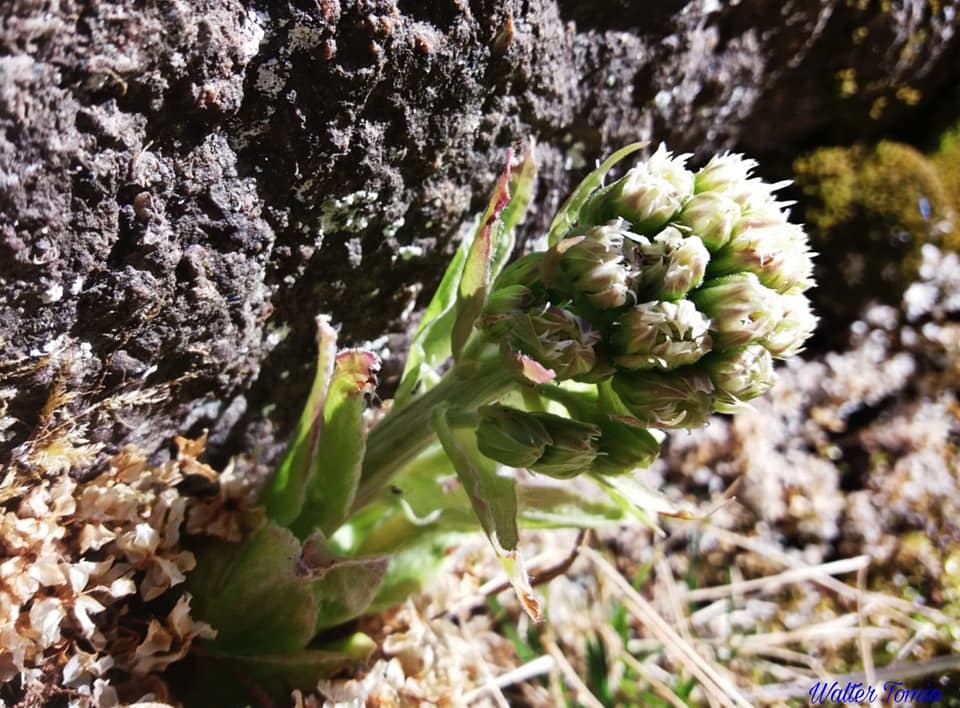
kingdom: Plantae
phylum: Tracheophyta
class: Magnoliopsida
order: Asterales
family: Asteraceae
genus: Petasites
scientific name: Petasites albus
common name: White butterbur
